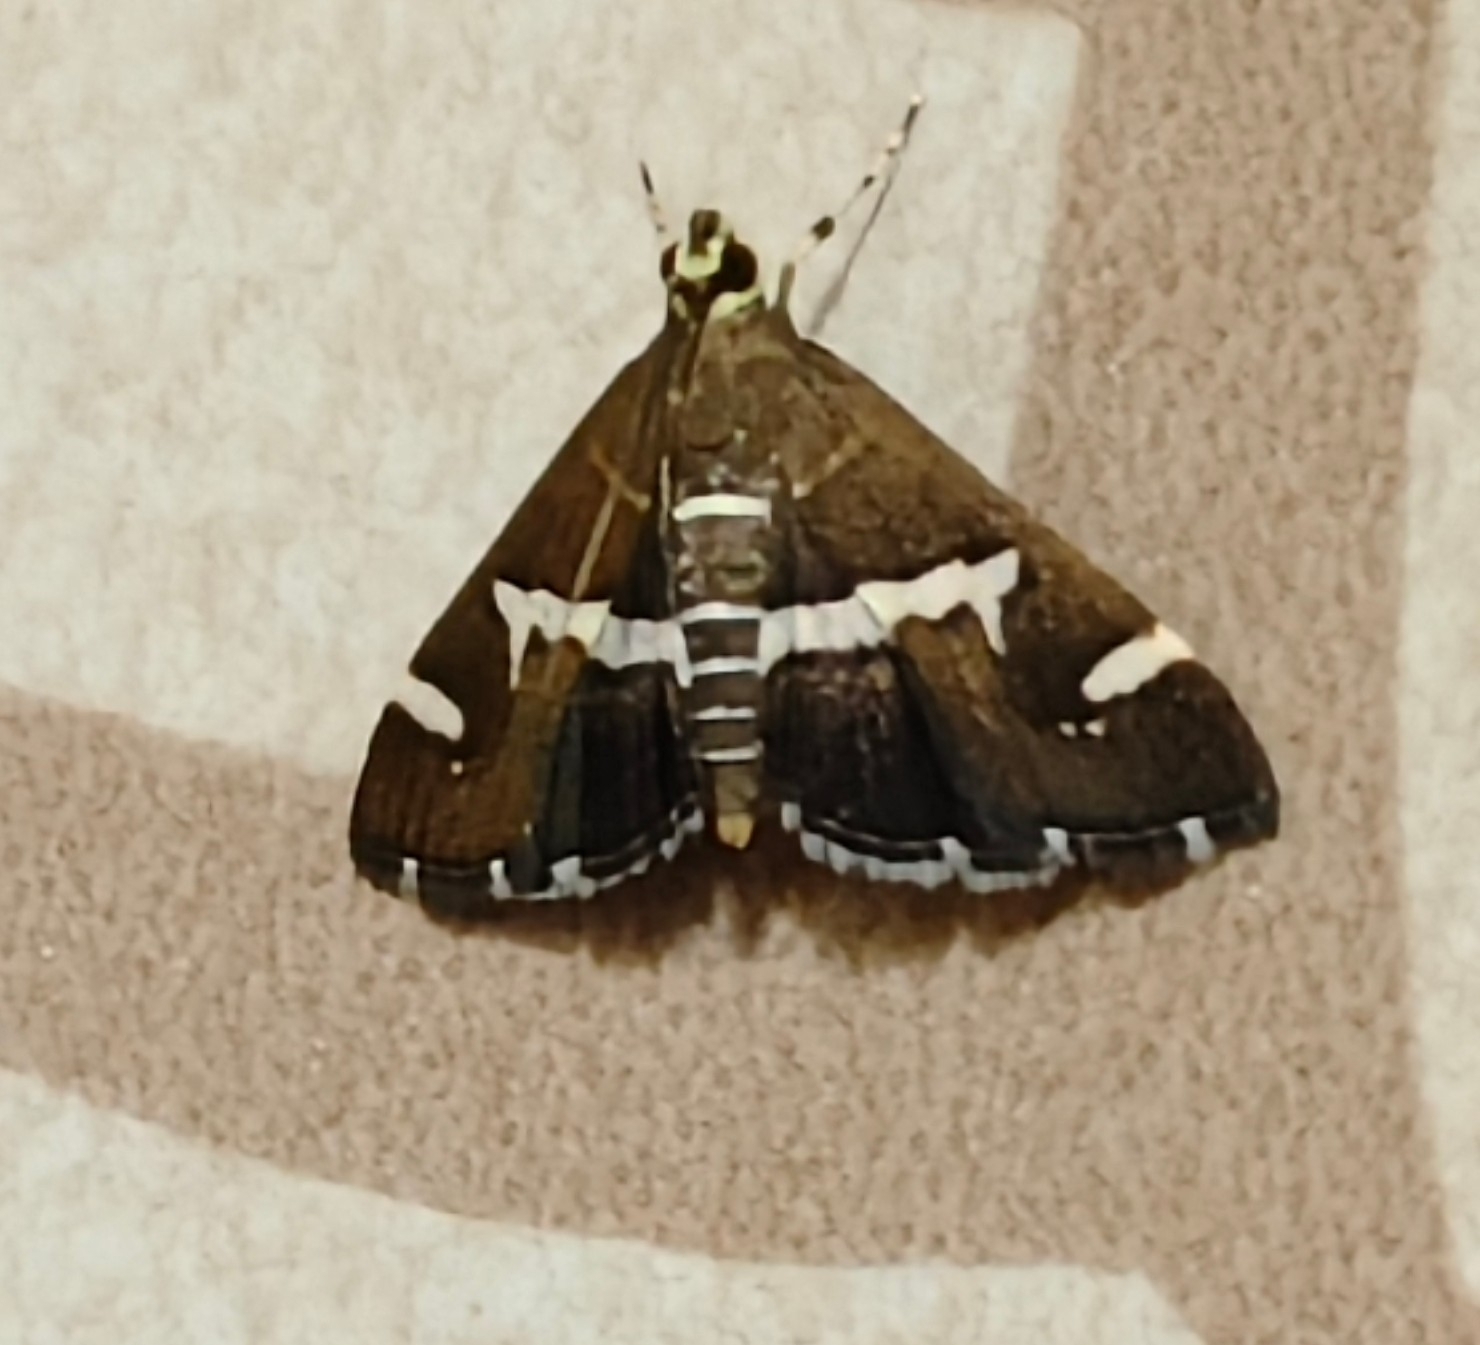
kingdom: Animalia
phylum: Arthropoda
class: Insecta
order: Lepidoptera
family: Crambidae
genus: Spoladea
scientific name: Spoladea recurvalis
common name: Beet webworm moth
